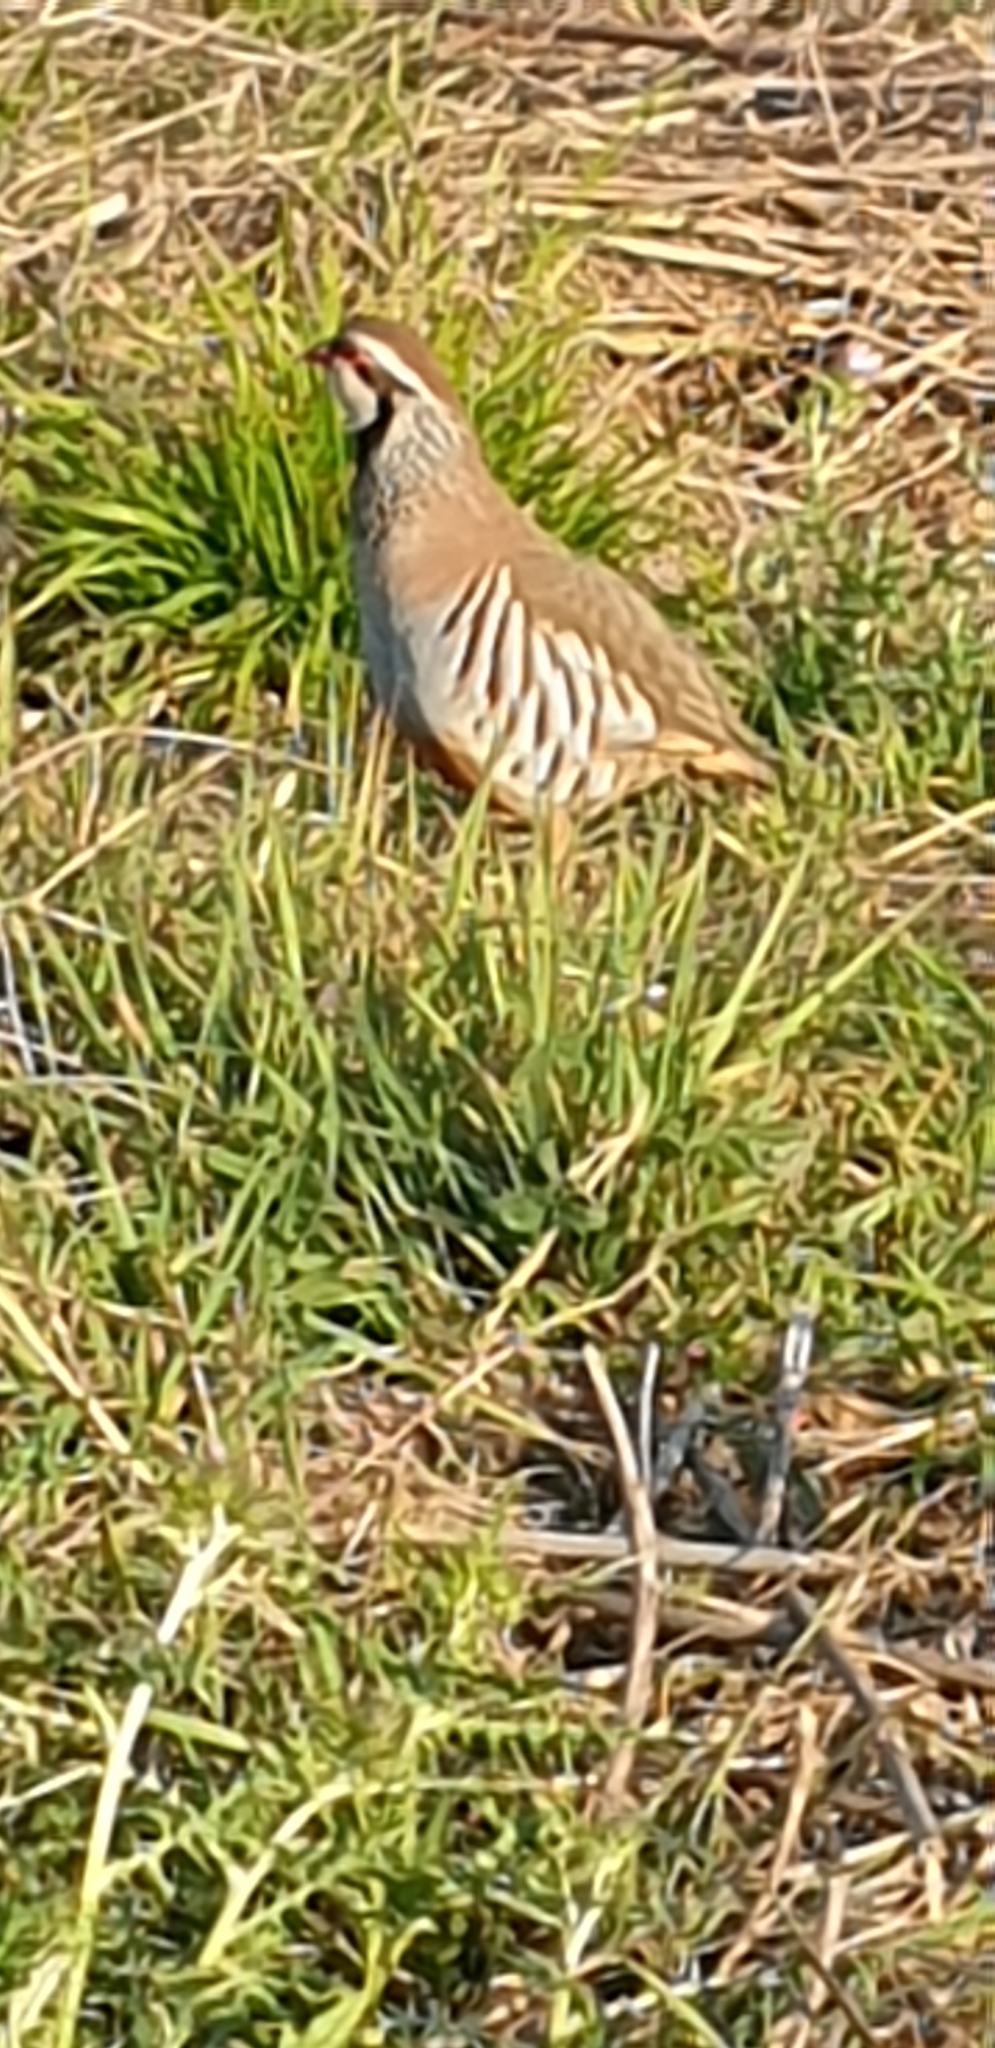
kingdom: Animalia
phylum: Chordata
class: Aves
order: Galliformes
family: Phasianidae
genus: Alectoris
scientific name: Alectoris rufa
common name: Red-legged partridge
